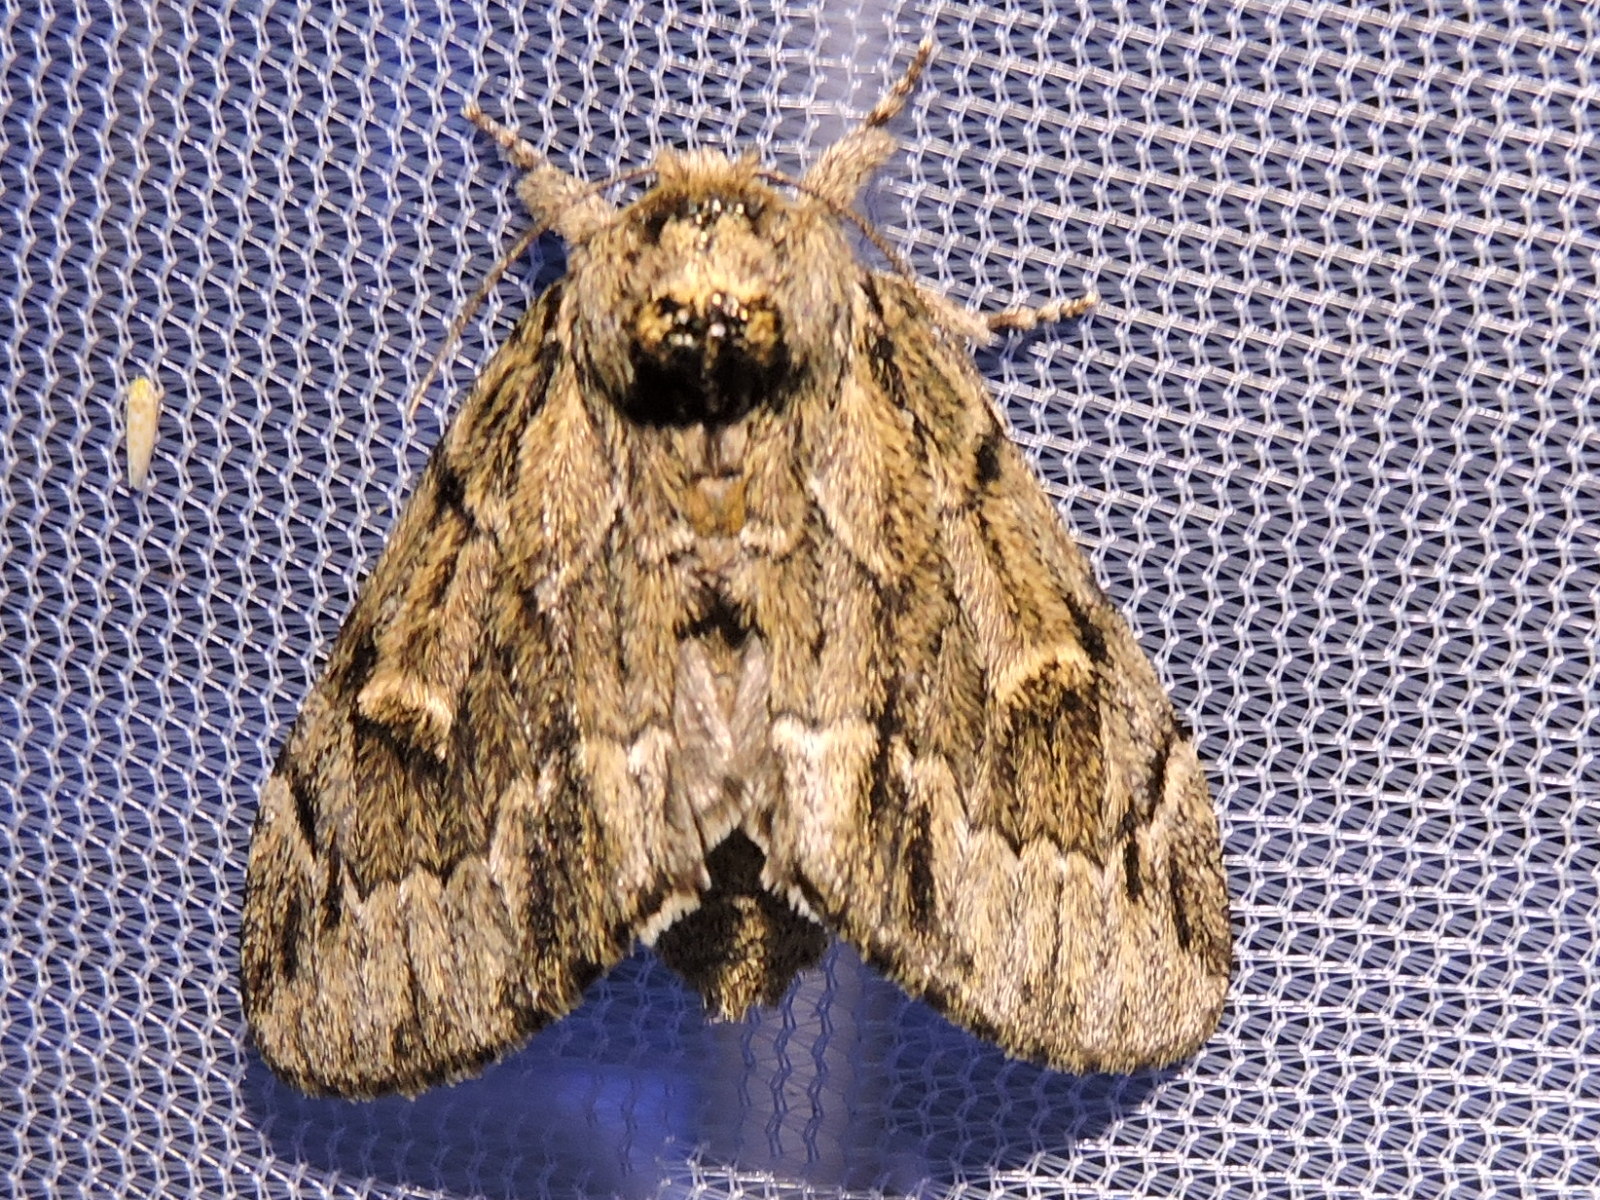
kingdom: Animalia
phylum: Arthropoda
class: Insecta
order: Lepidoptera
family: Notodontidae
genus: Paraeschra
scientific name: Paraeschra georgica
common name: Georgian prominent
